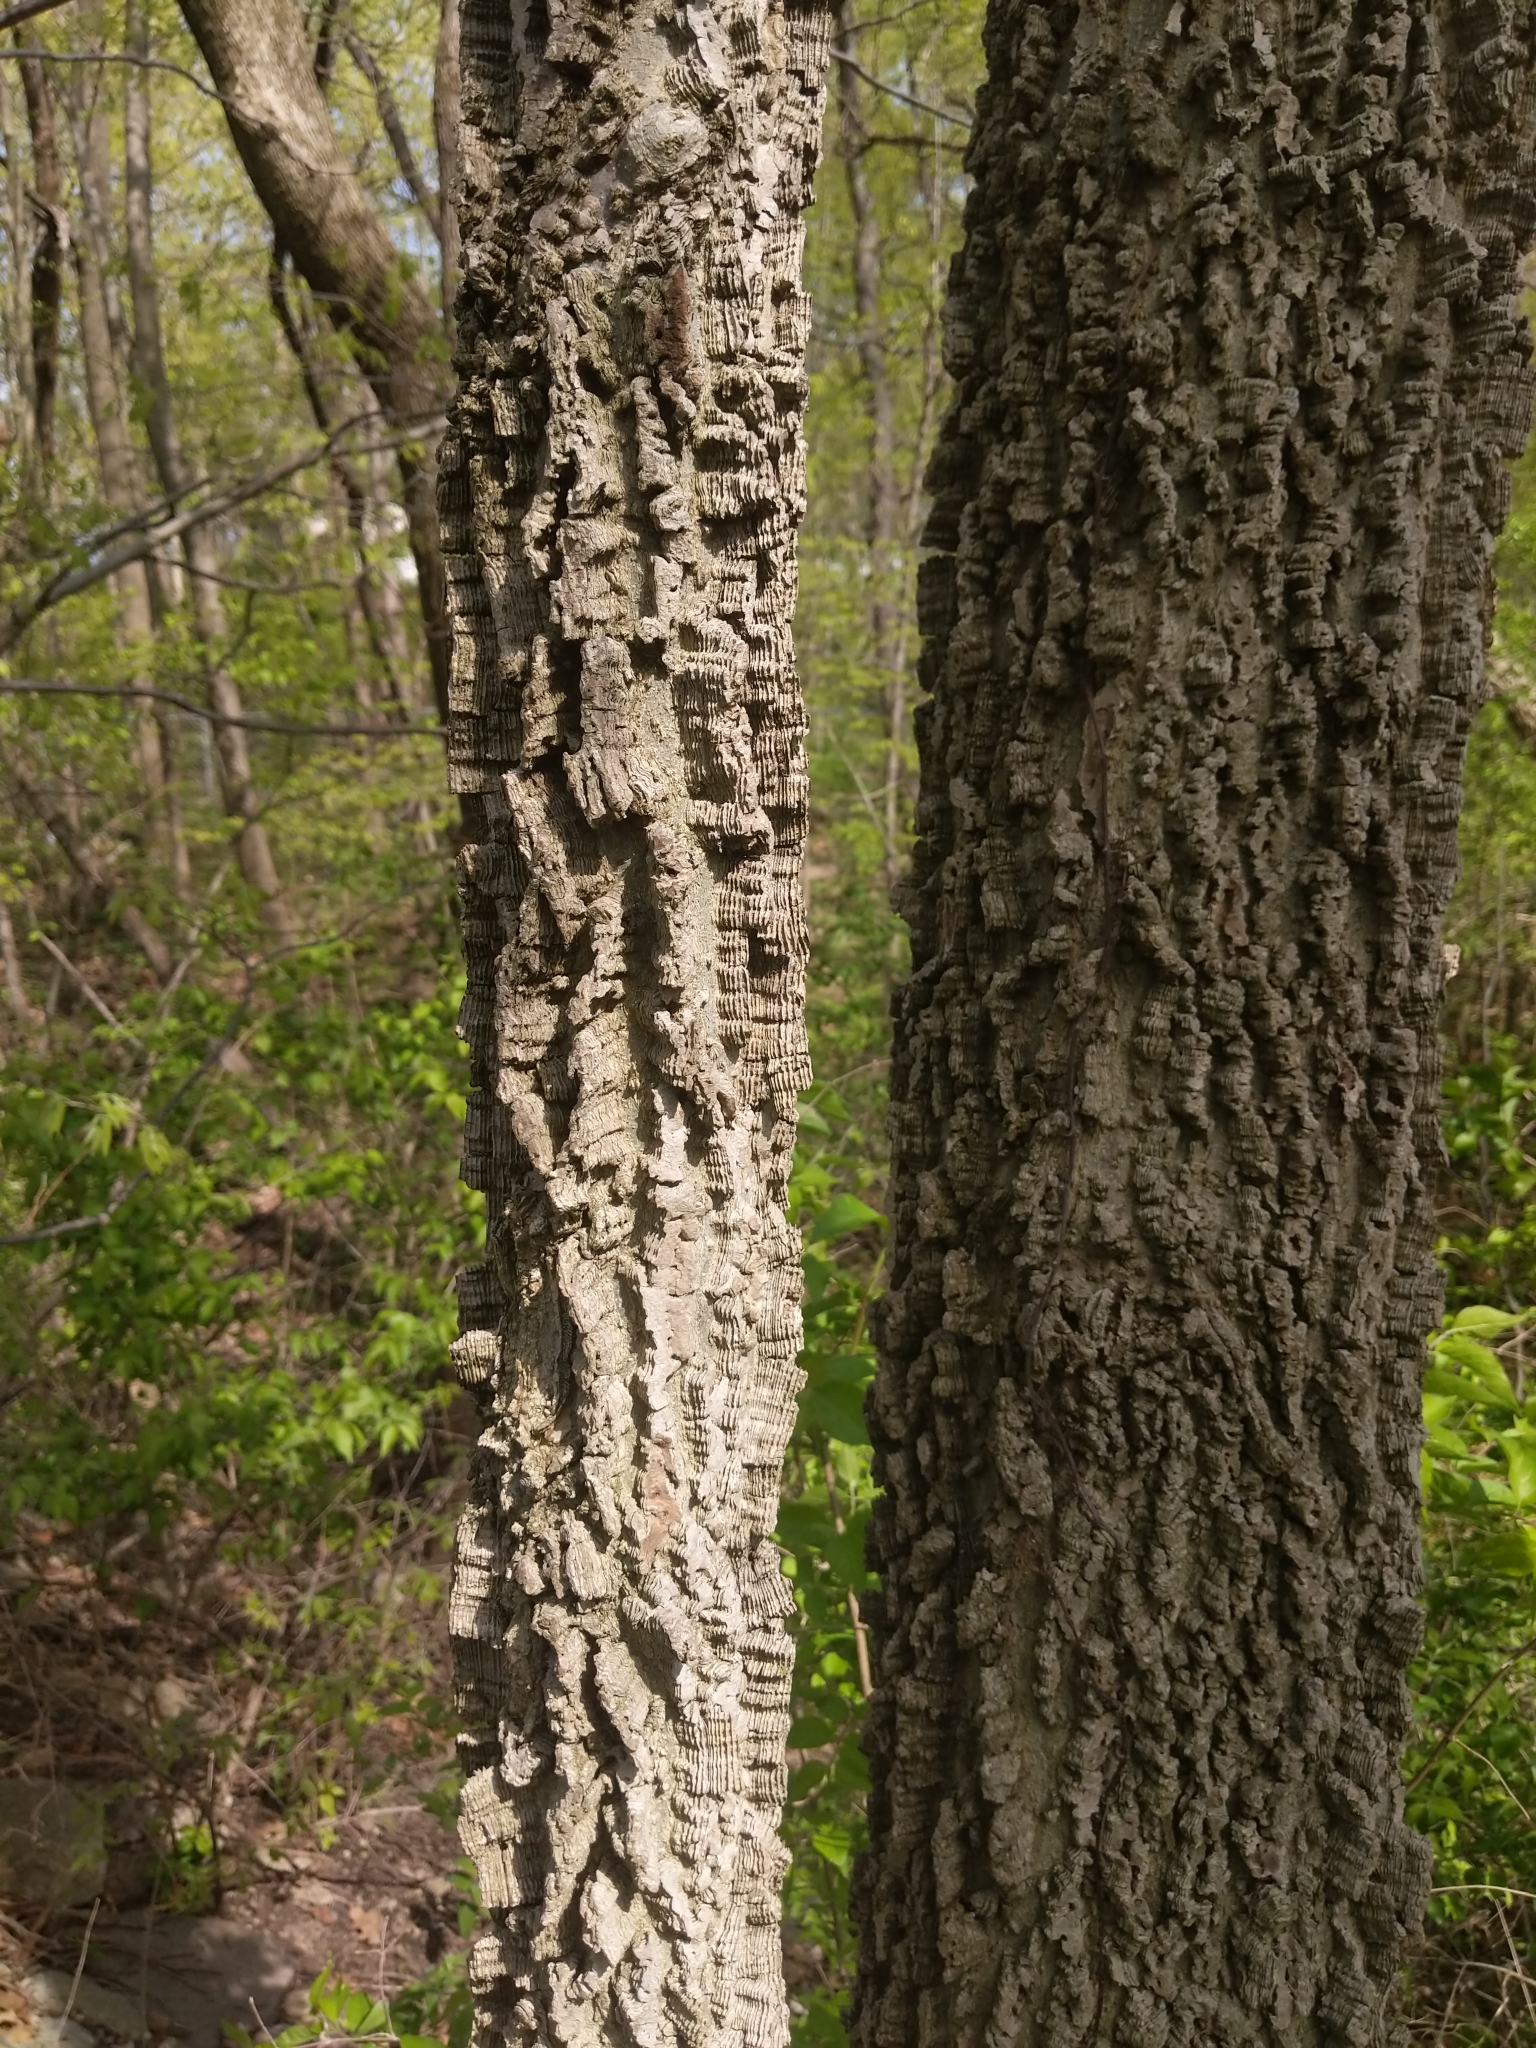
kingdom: Plantae
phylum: Tracheophyta
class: Magnoliopsida
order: Rosales
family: Cannabaceae
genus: Celtis
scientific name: Celtis occidentalis
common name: Common hackberry
